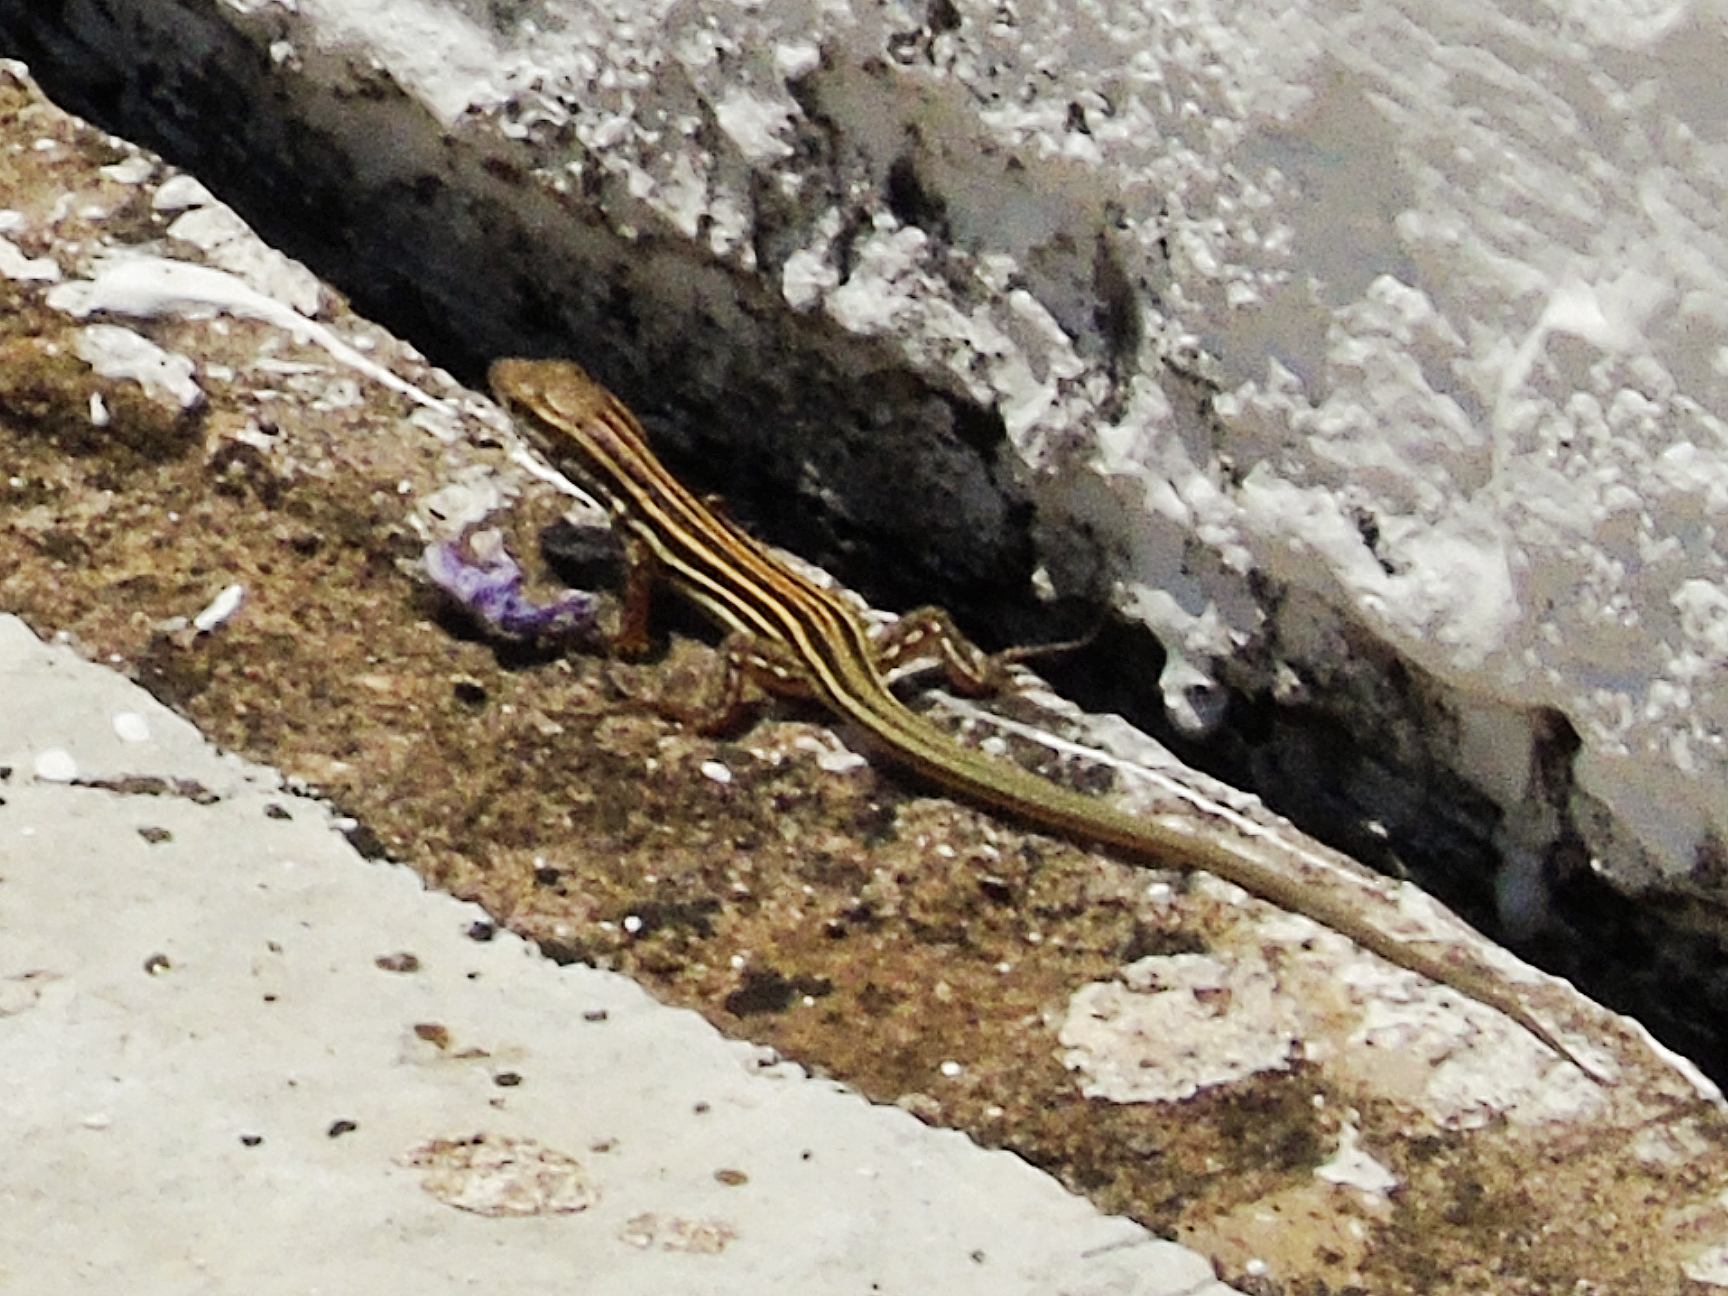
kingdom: Animalia
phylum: Chordata
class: Squamata
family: Lacertidae
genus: Podarcis
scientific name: Podarcis peloponnesiacus
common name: Peloponnese wall lizard
